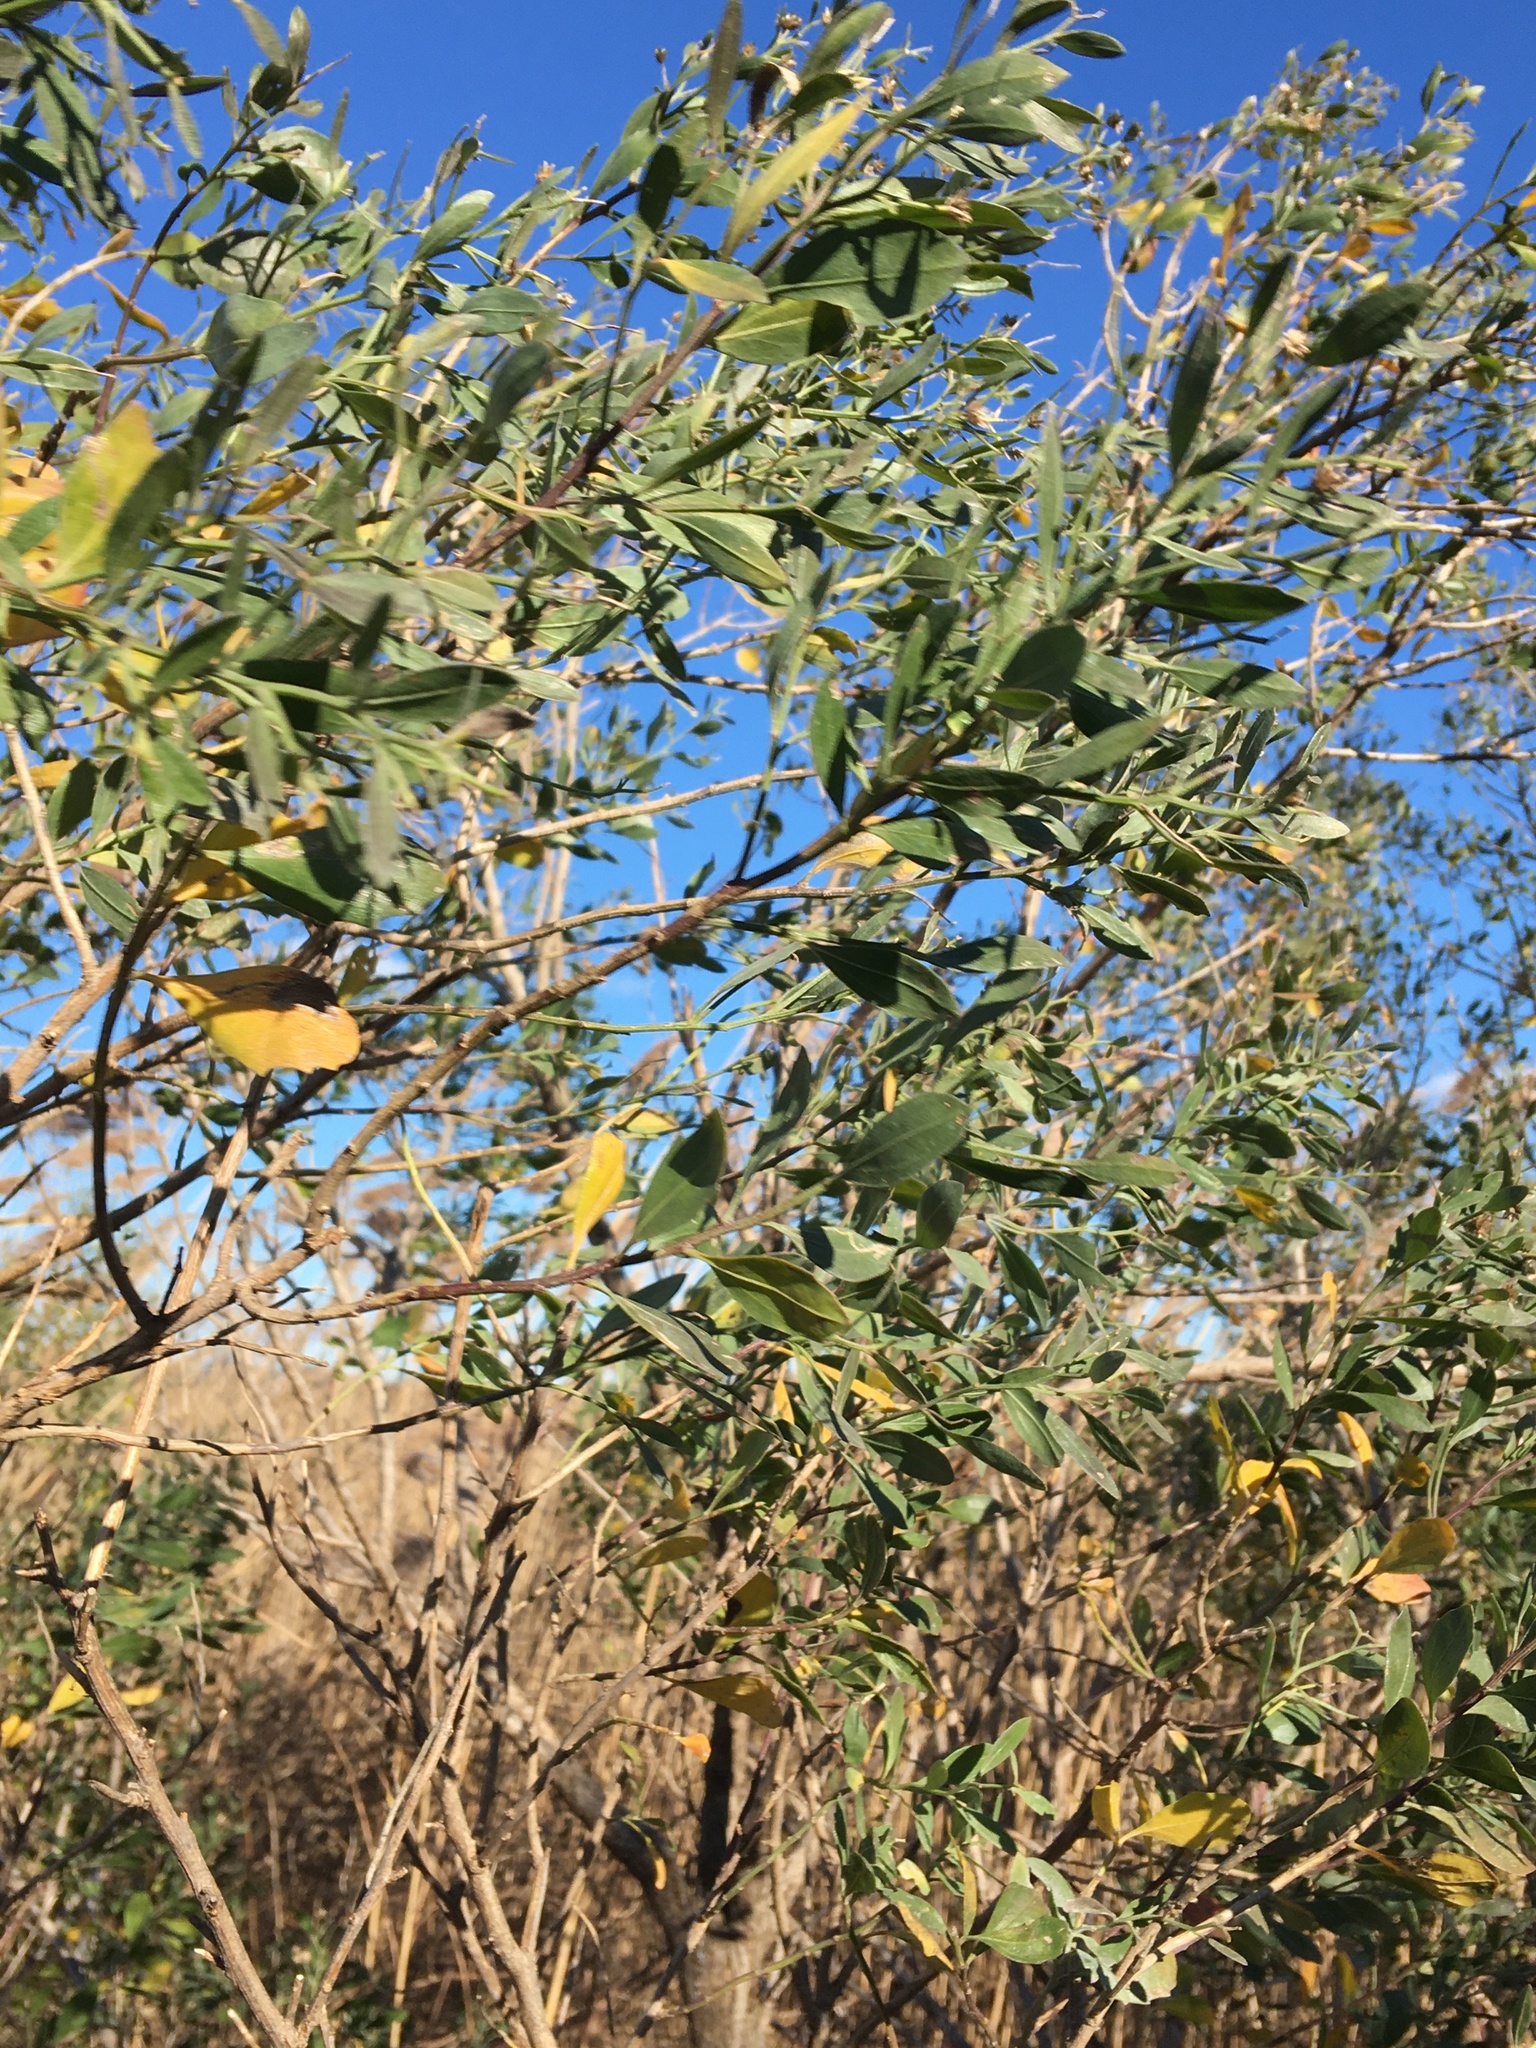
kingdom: Plantae
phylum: Tracheophyta
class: Magnoliopsida
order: Asterales
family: Asteraceae
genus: Baccharis
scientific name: Baccharis halimifolia
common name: Eastern baccharis
